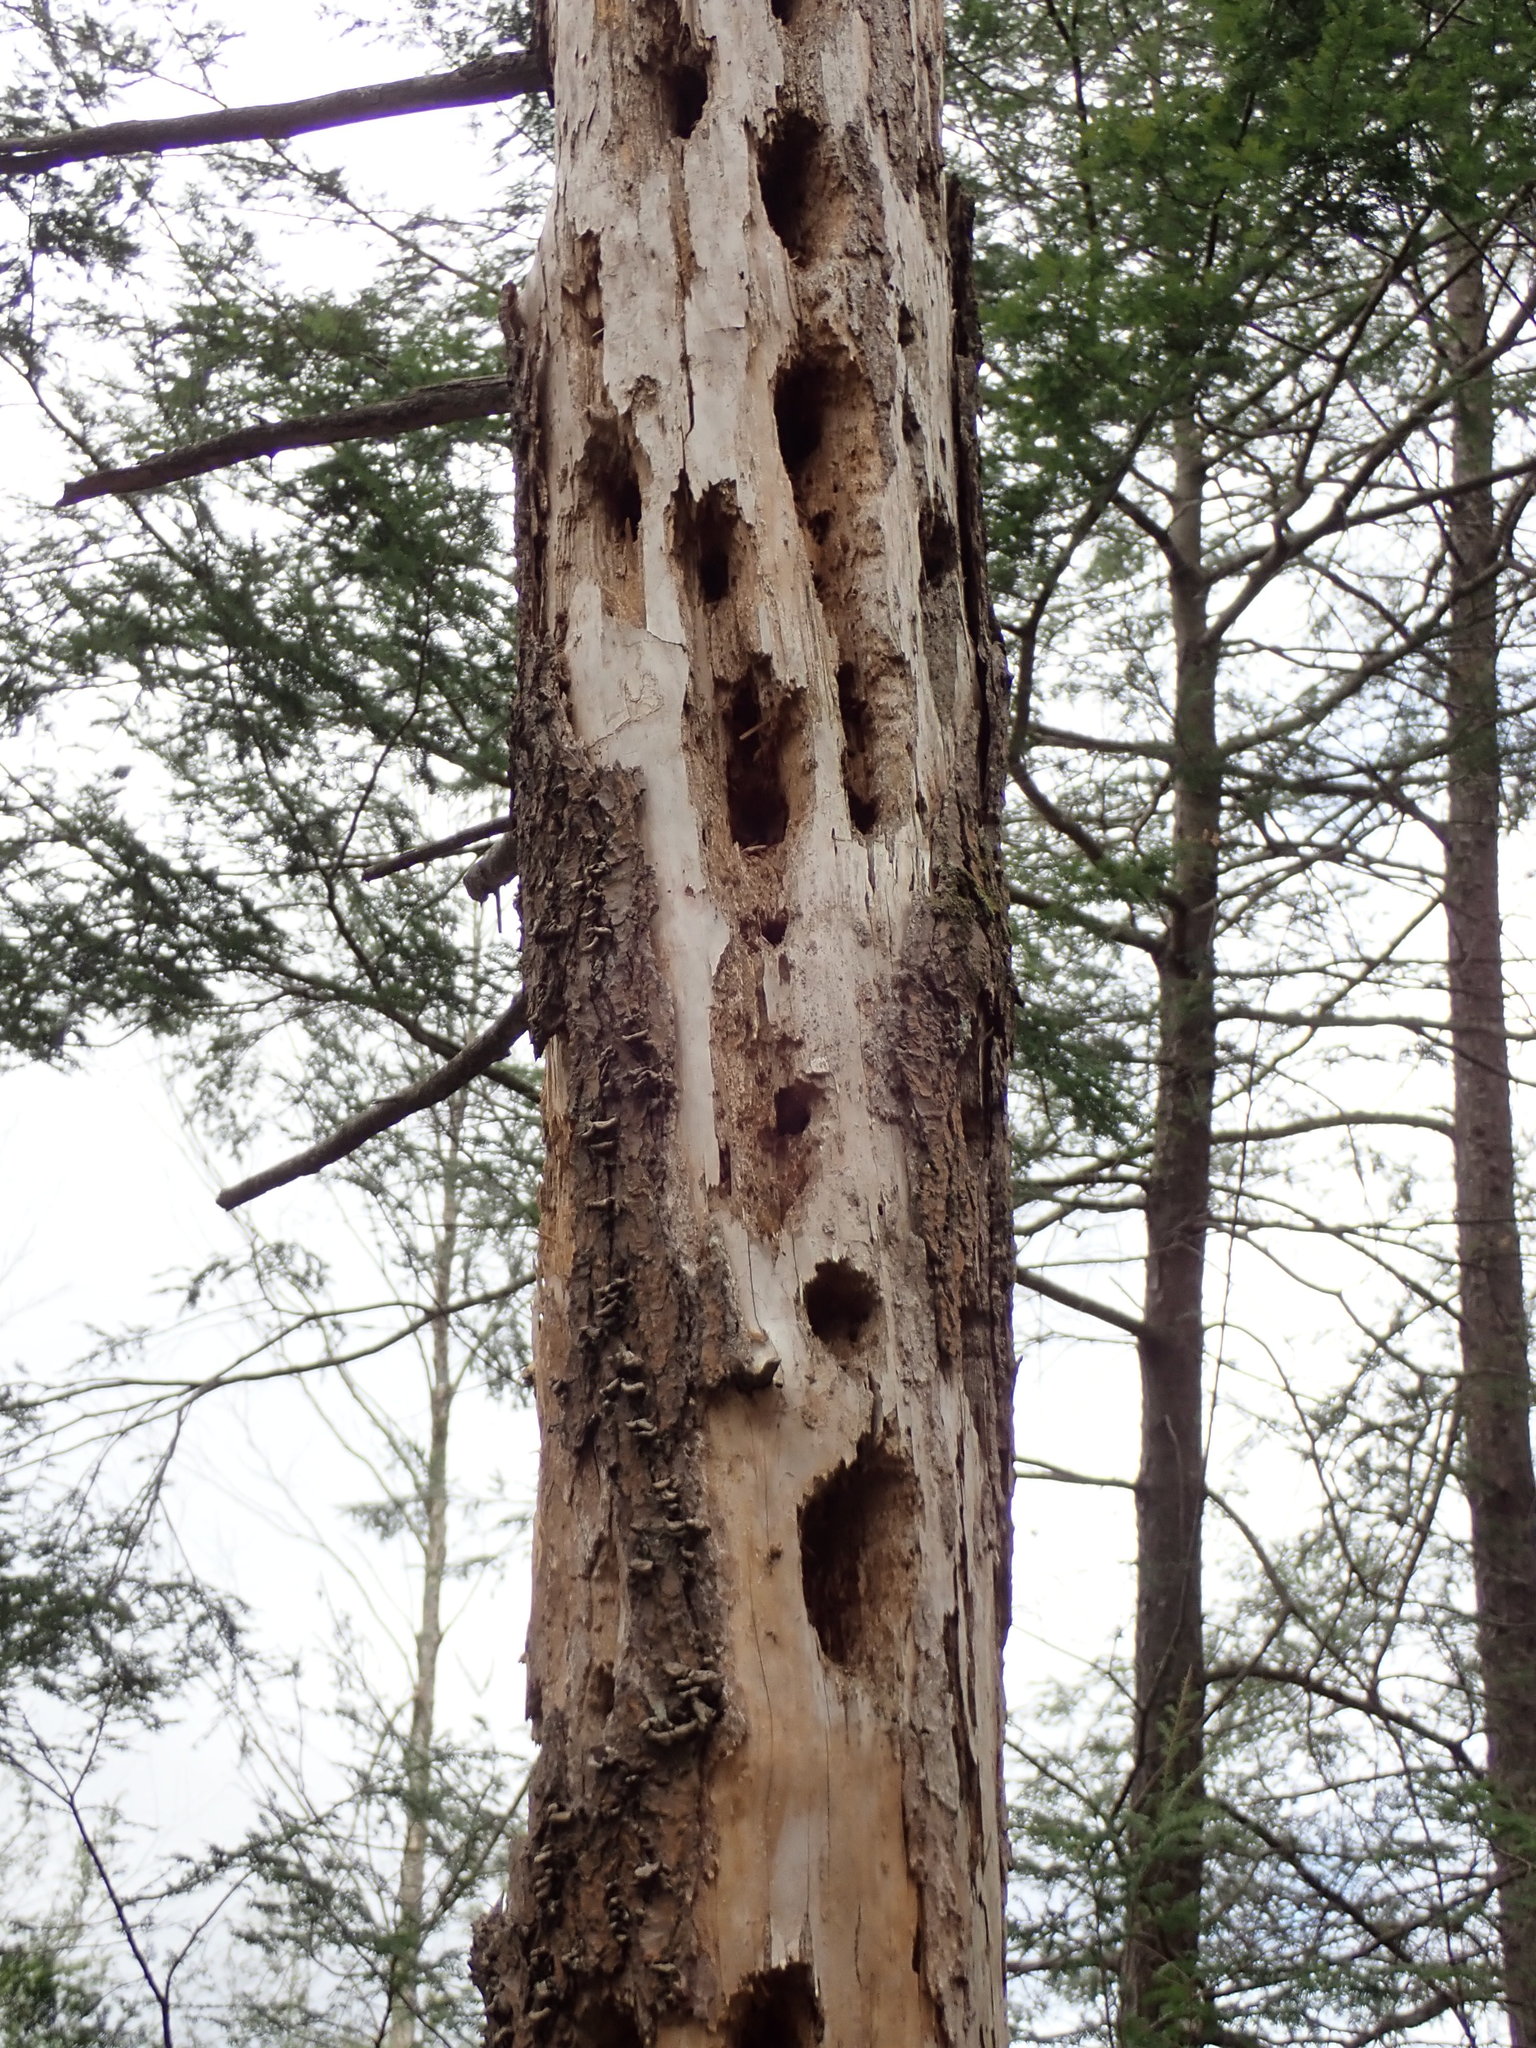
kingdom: Animalia
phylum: Chordata
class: Aves
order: Piciformes
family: Picidae
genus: Dryocopus
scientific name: Dryocopus pileatus
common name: Pileated woodpecker
